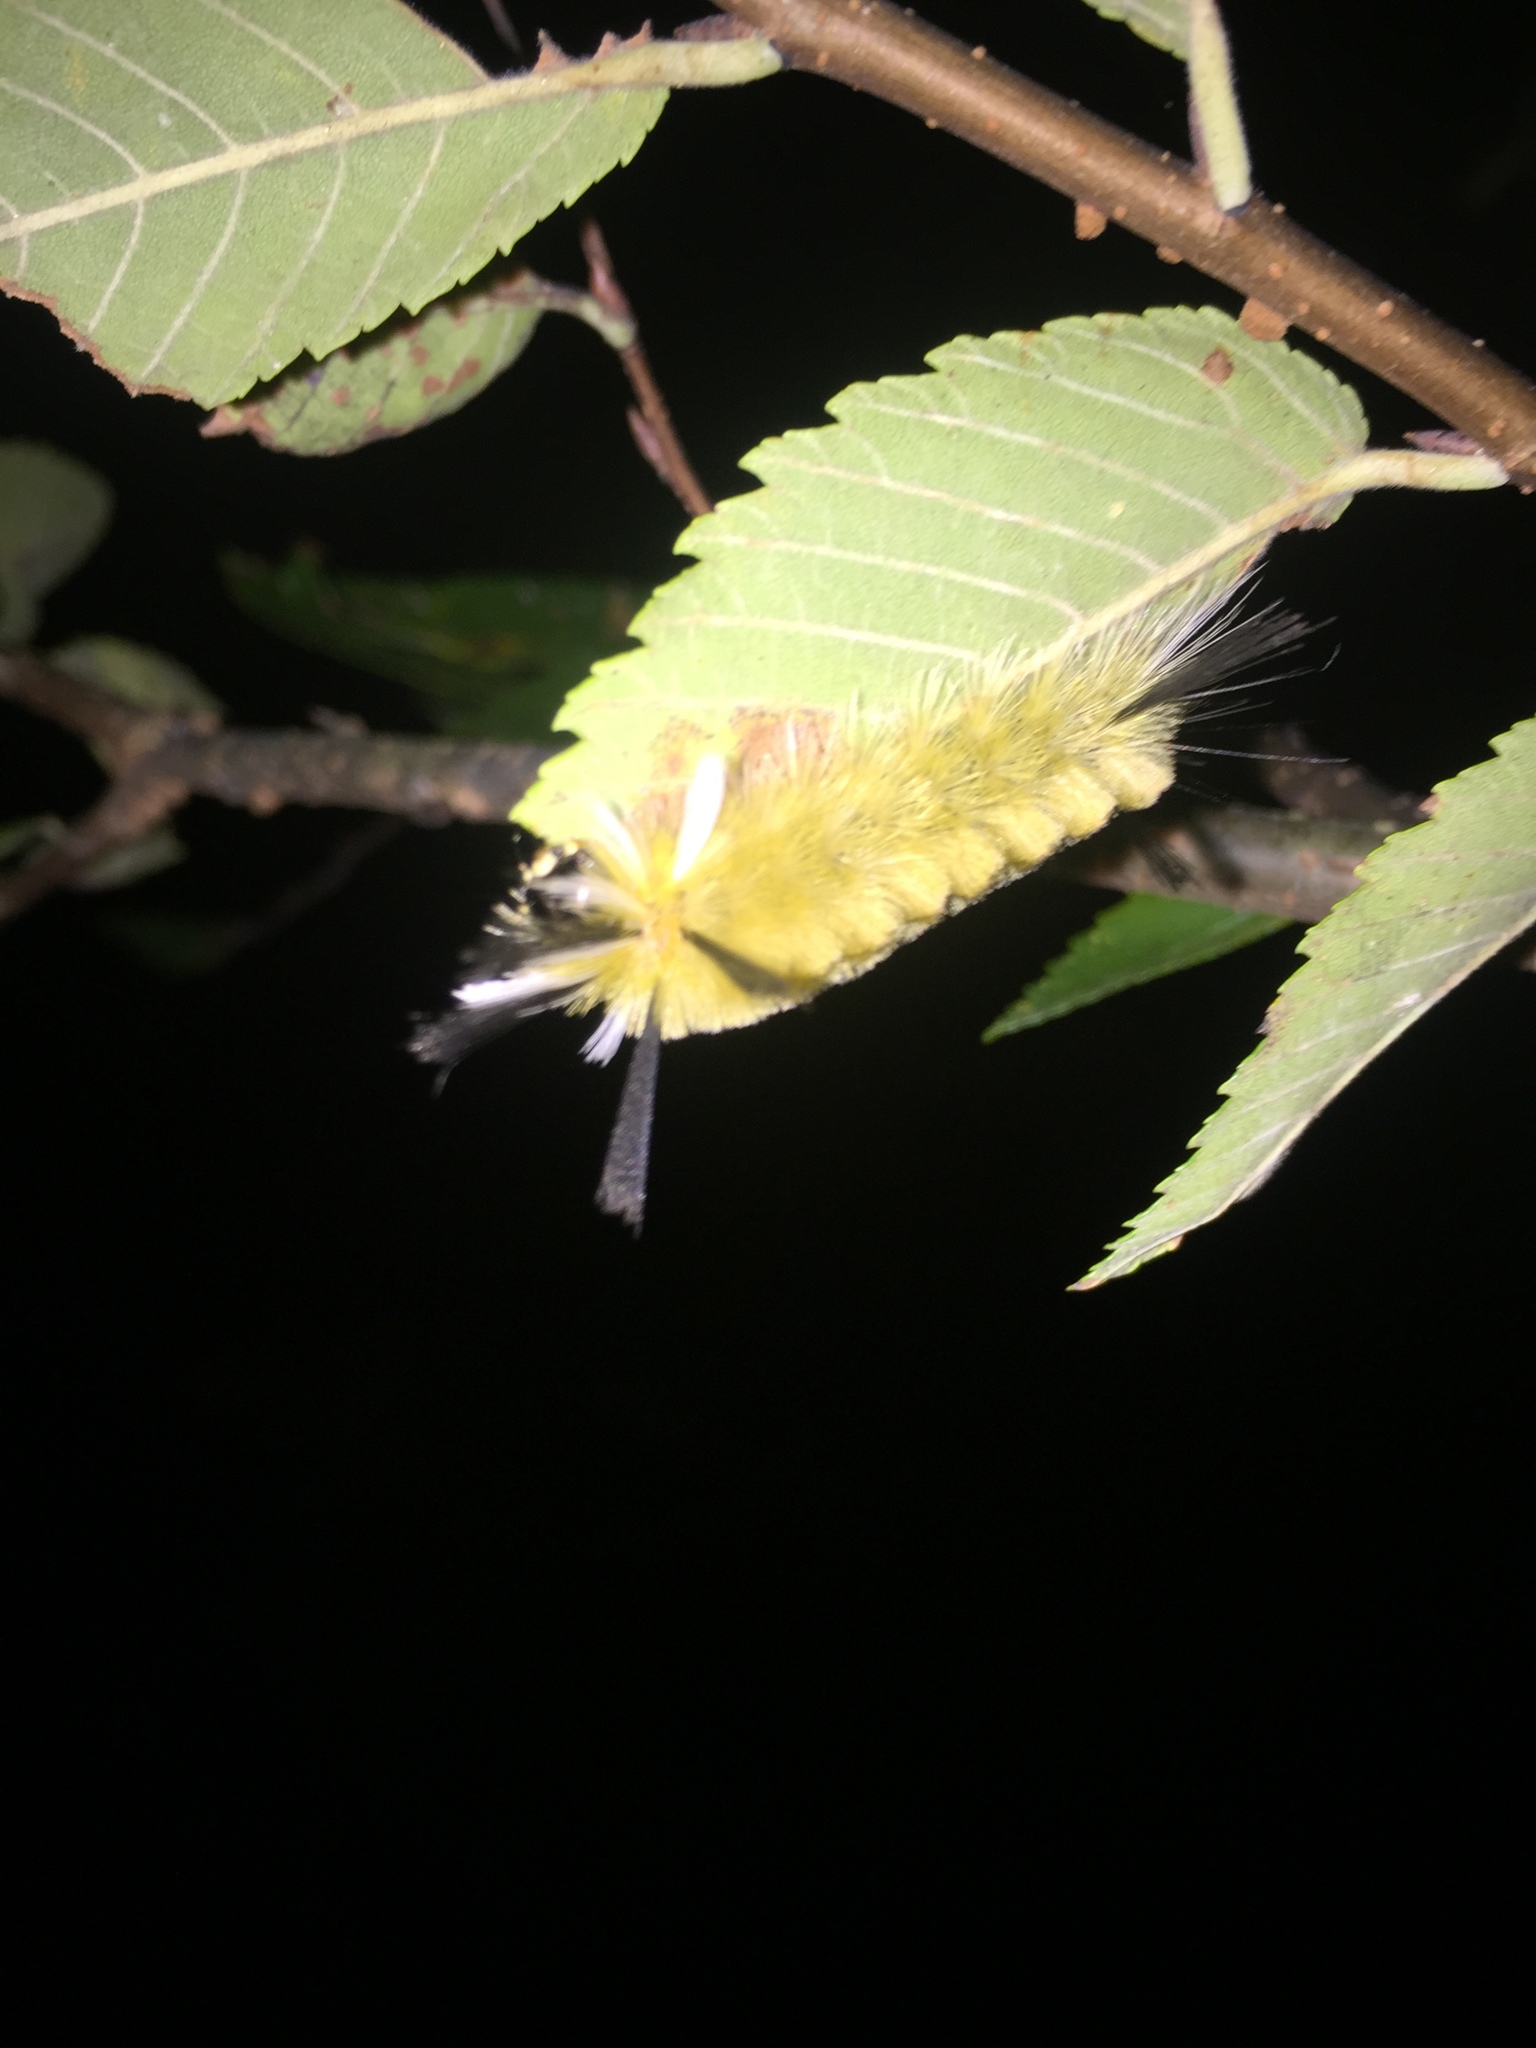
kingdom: Animalia
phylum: Arthropoda
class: Insecta
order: Lepidoptera
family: Erebidae
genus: Halysidota
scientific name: Halysidota tessellaris
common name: Banded tussock moth
